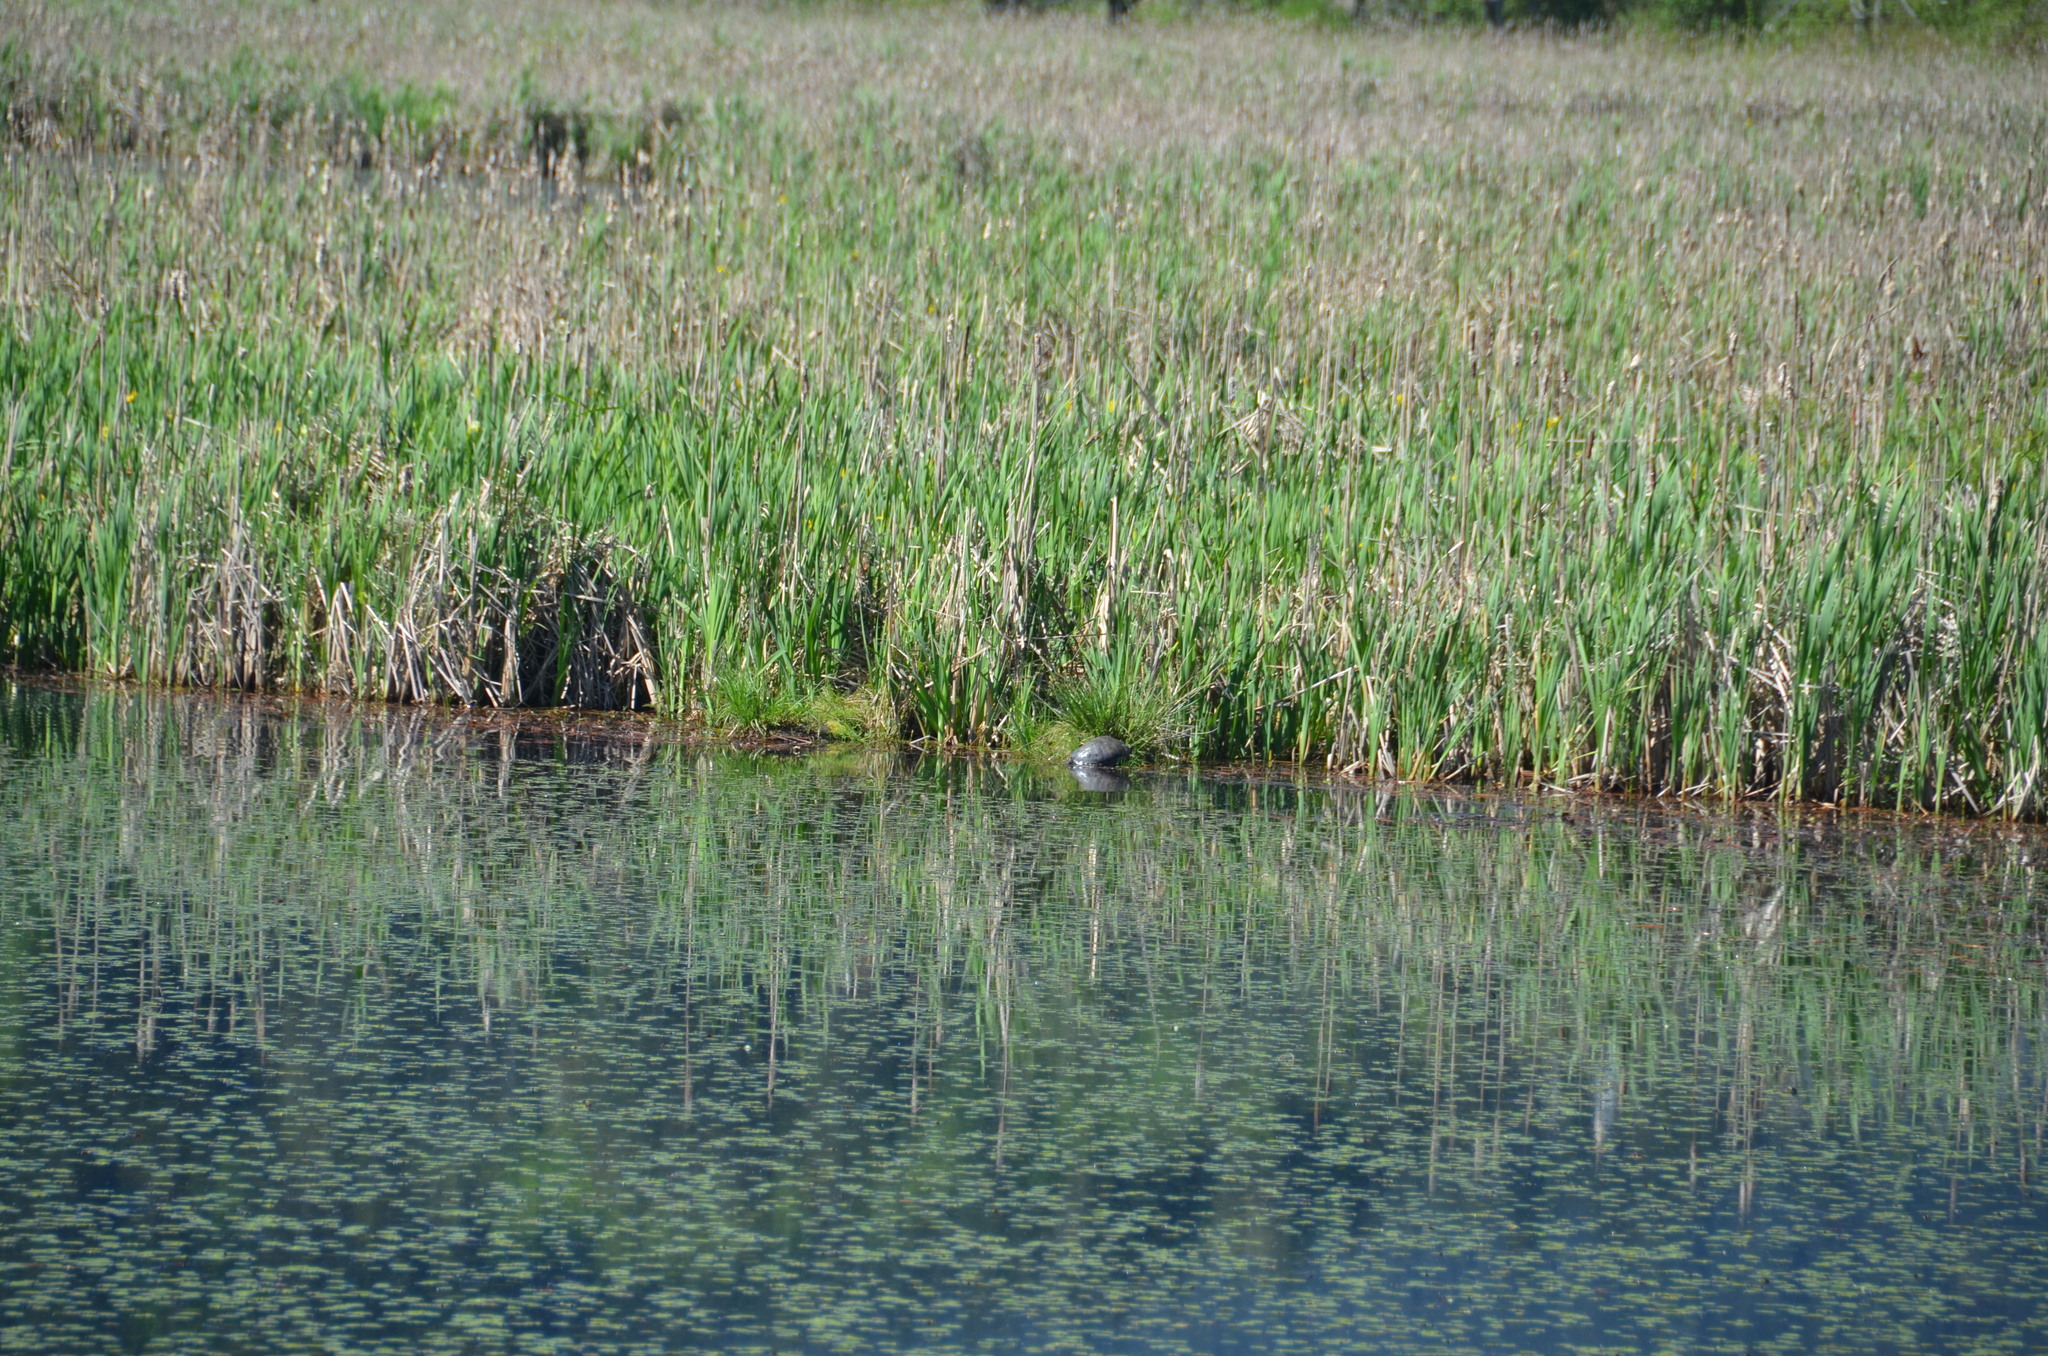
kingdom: Animalia
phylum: Chordata
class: Testudines
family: Emydidae
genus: Trachemys
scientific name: Trachemys scripta
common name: Slider
